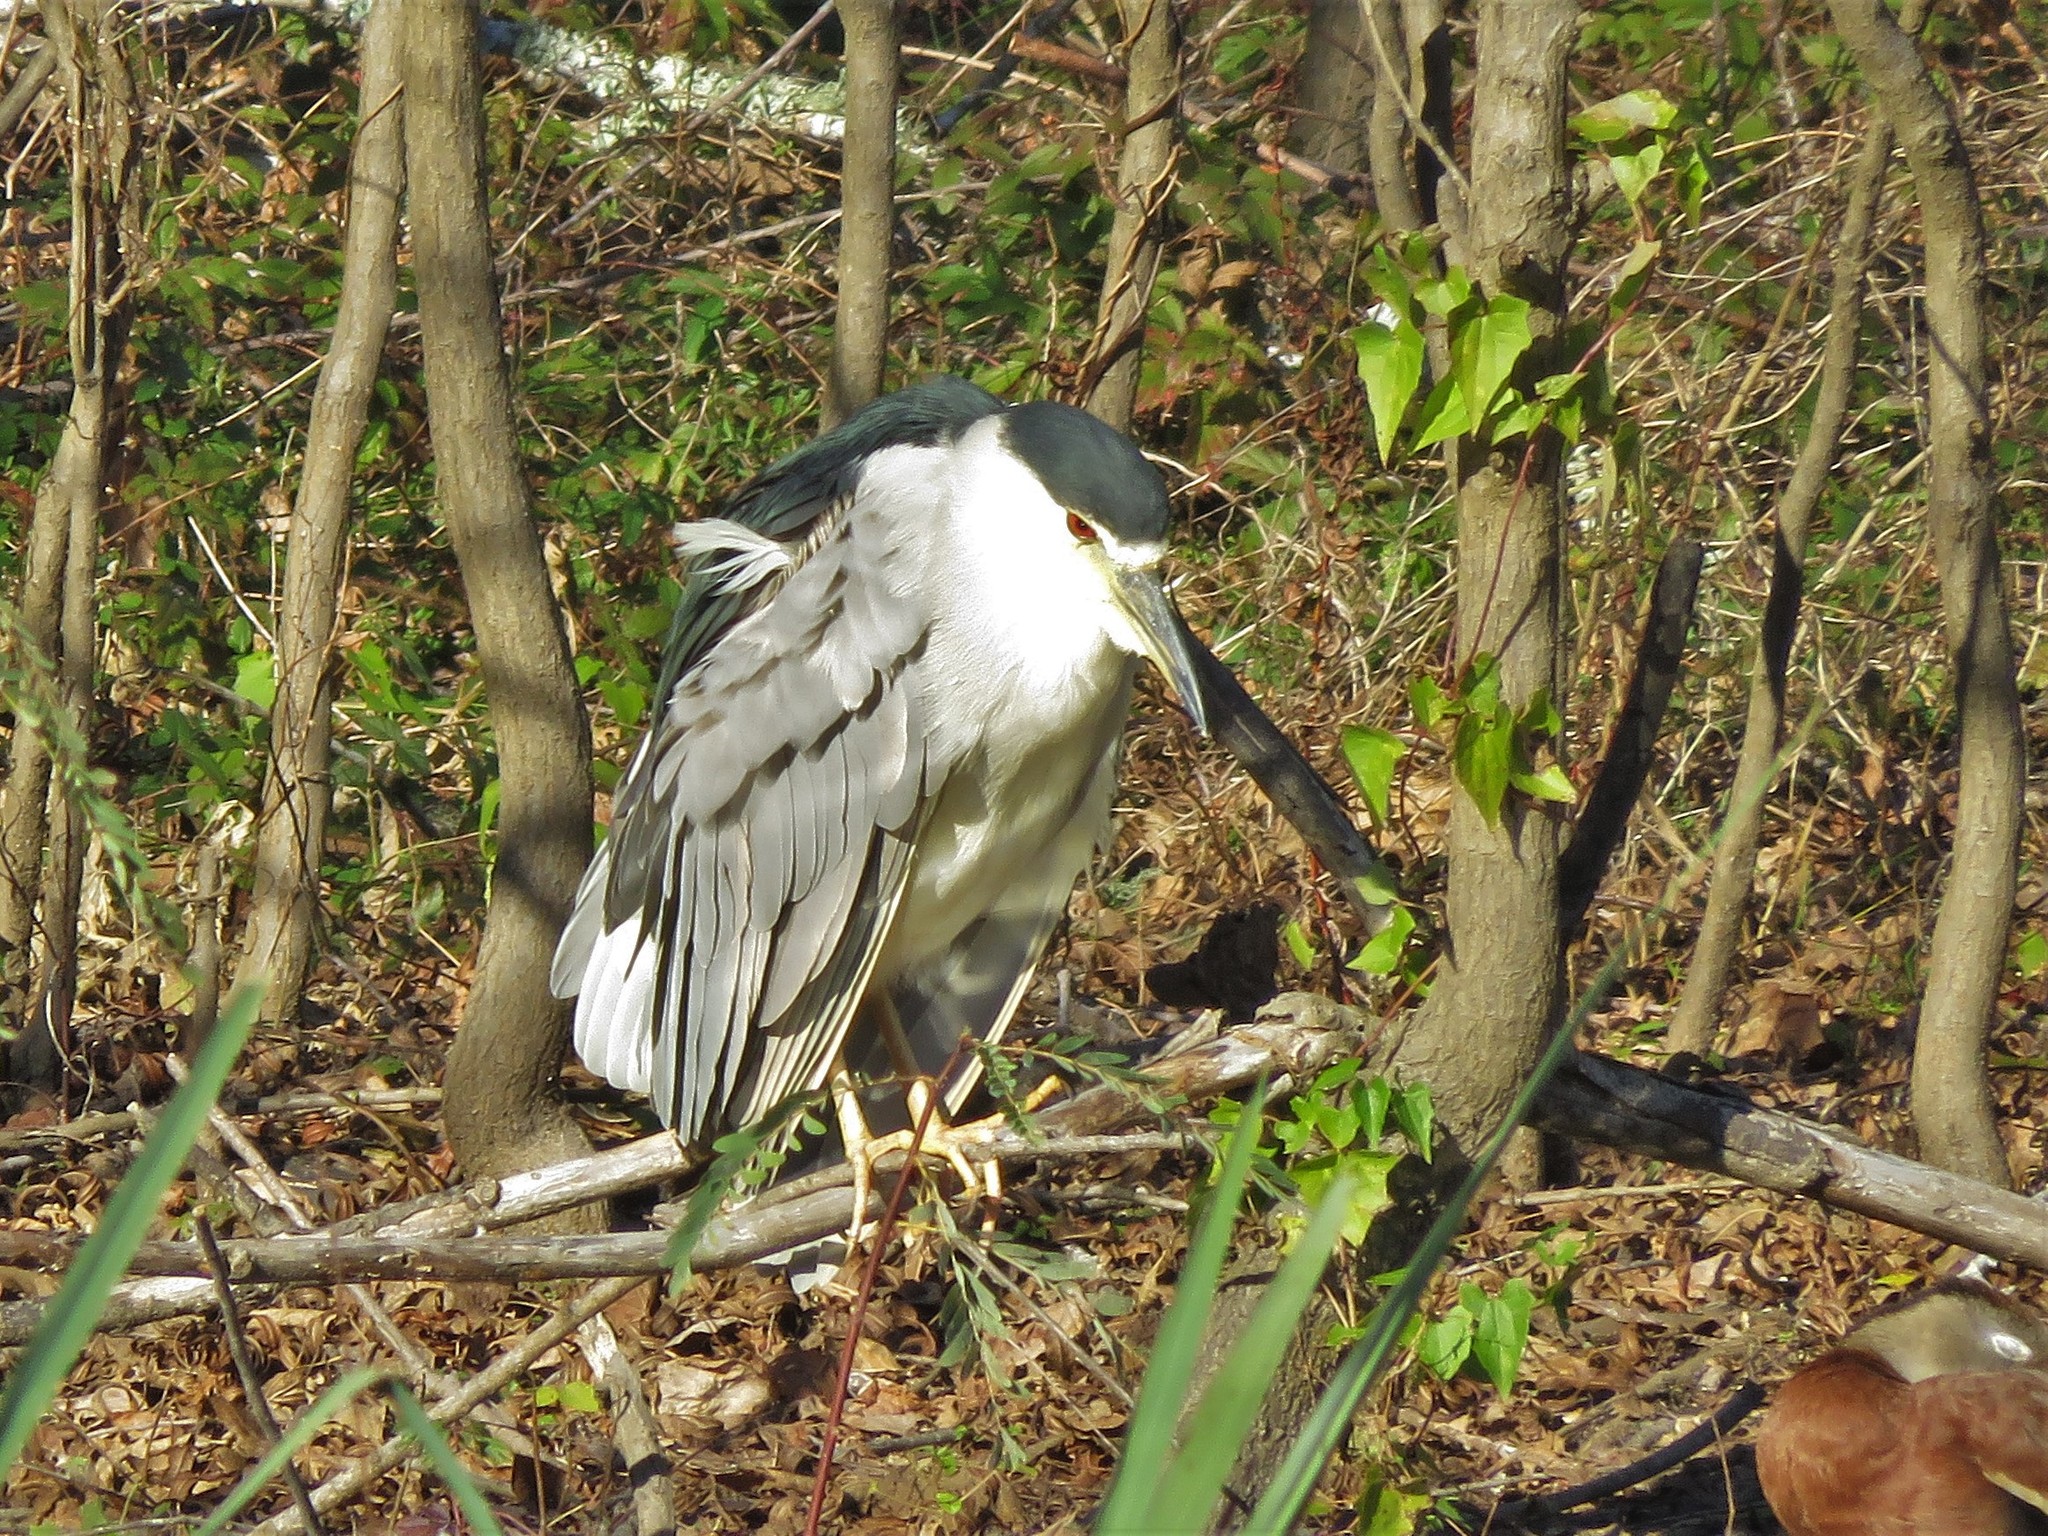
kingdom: Animalia
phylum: Chordata
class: Aves
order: Pelecaniformes
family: Ardeidae
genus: Nycticorax
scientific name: Nycticorax nycticorax
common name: Black-crowned night heron
